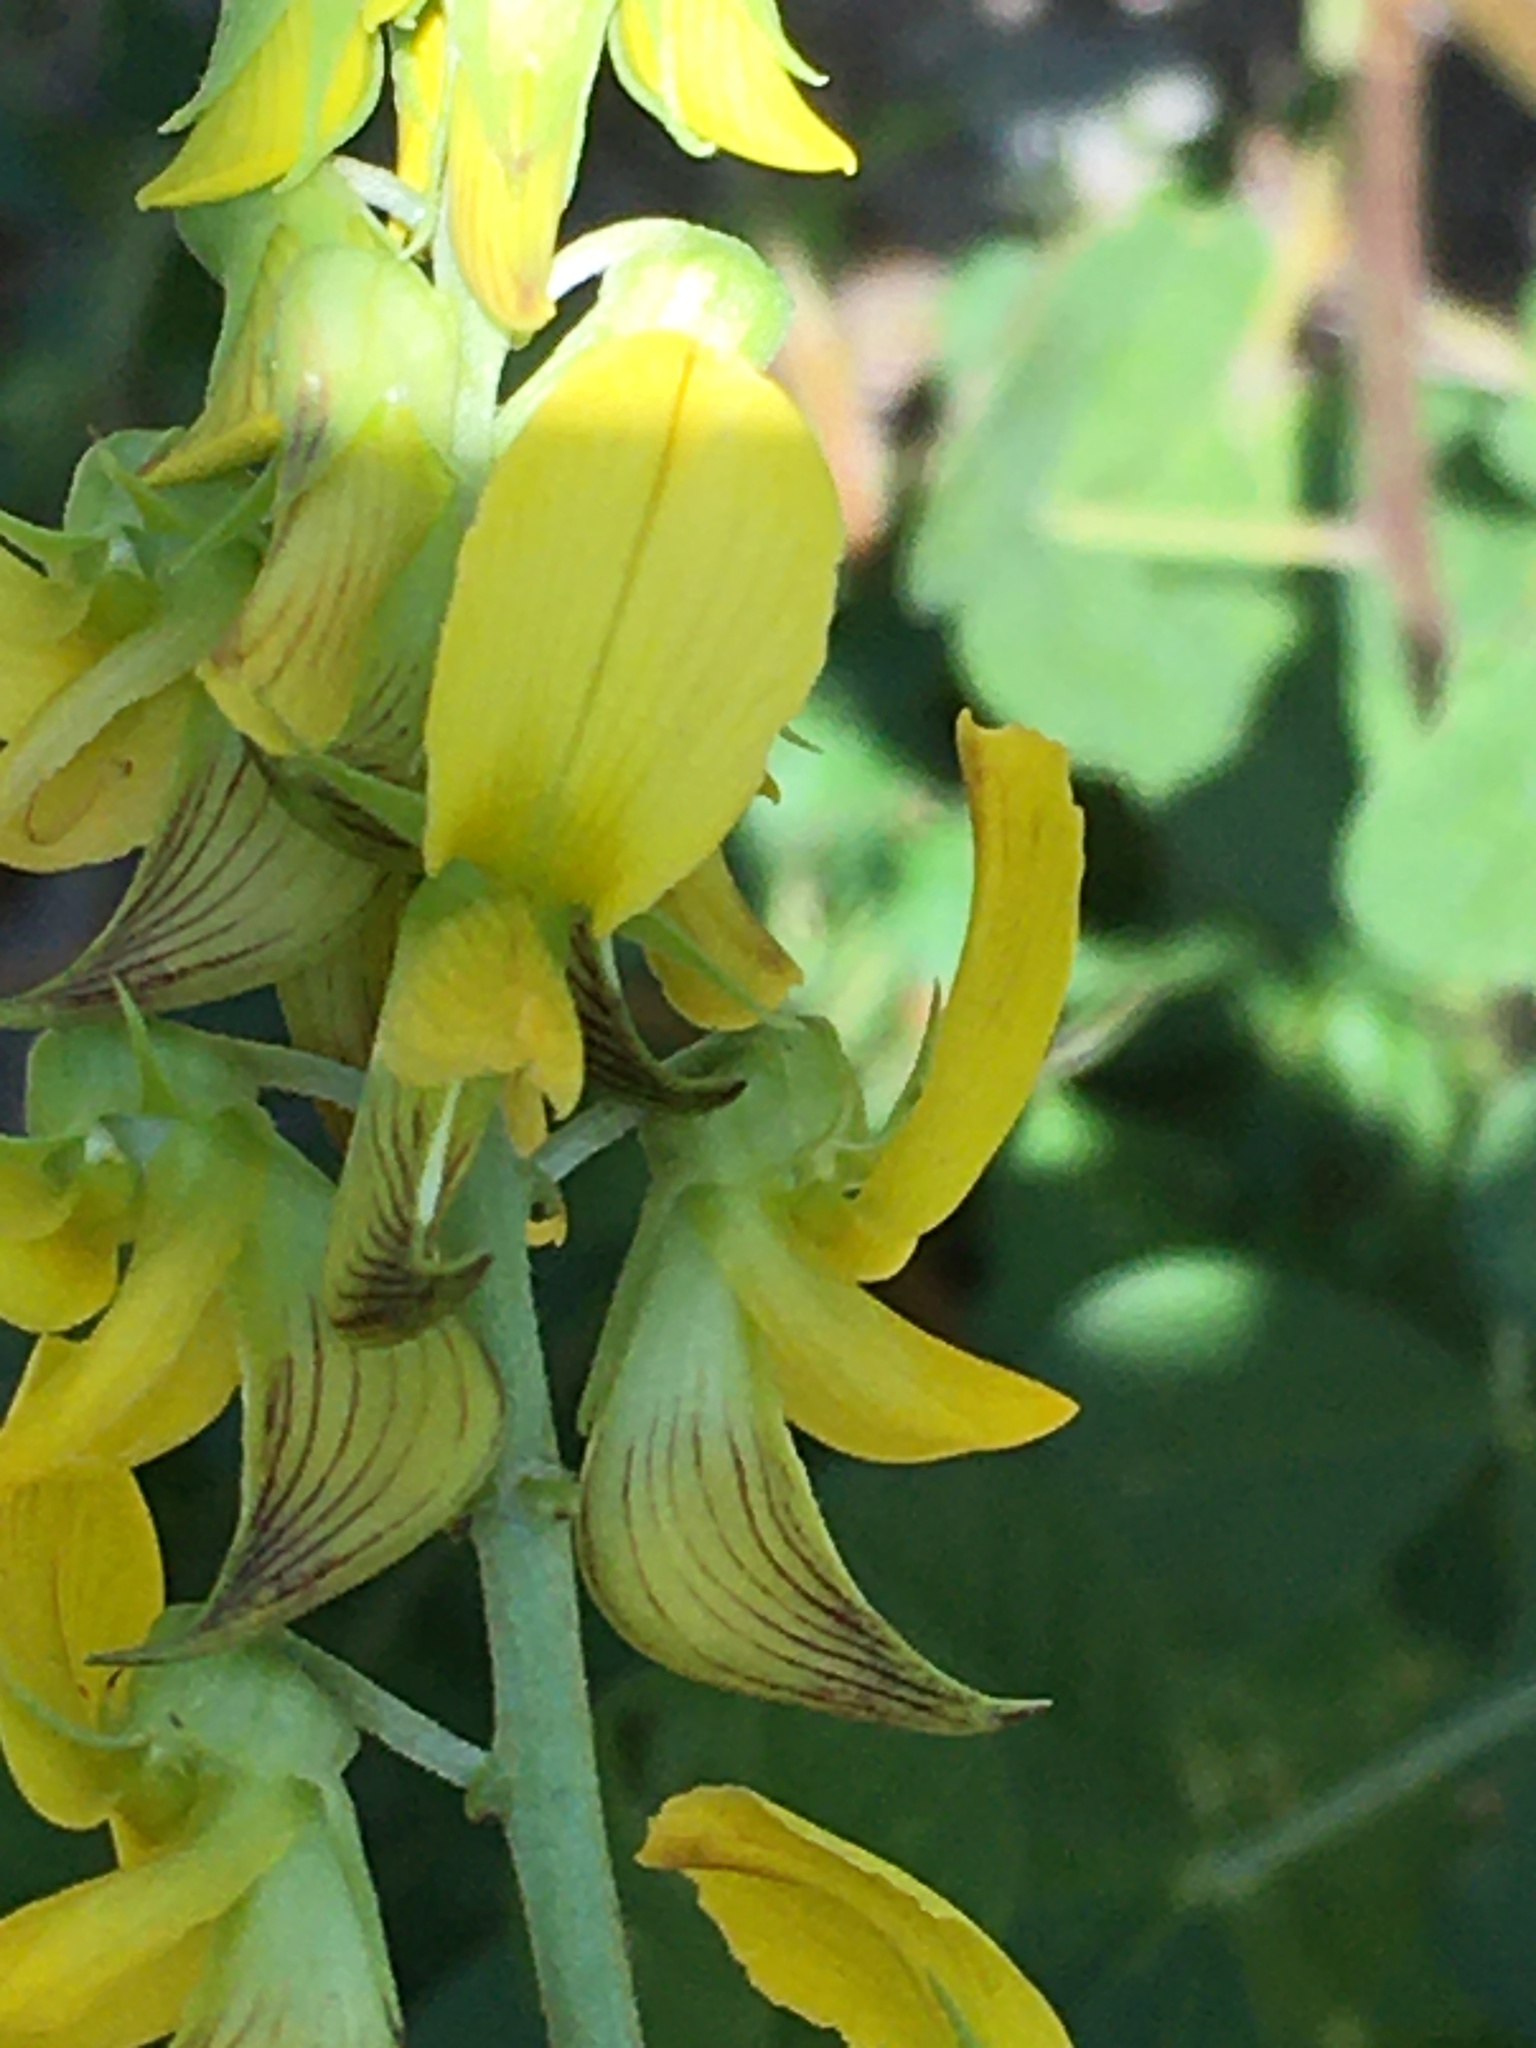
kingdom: Plantae
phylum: Tracheophyta
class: Magnoliopsida
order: Fabales
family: Fabaceae
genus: Crotalaria
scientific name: Crotalaria pallida
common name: Smooth rattlebox
